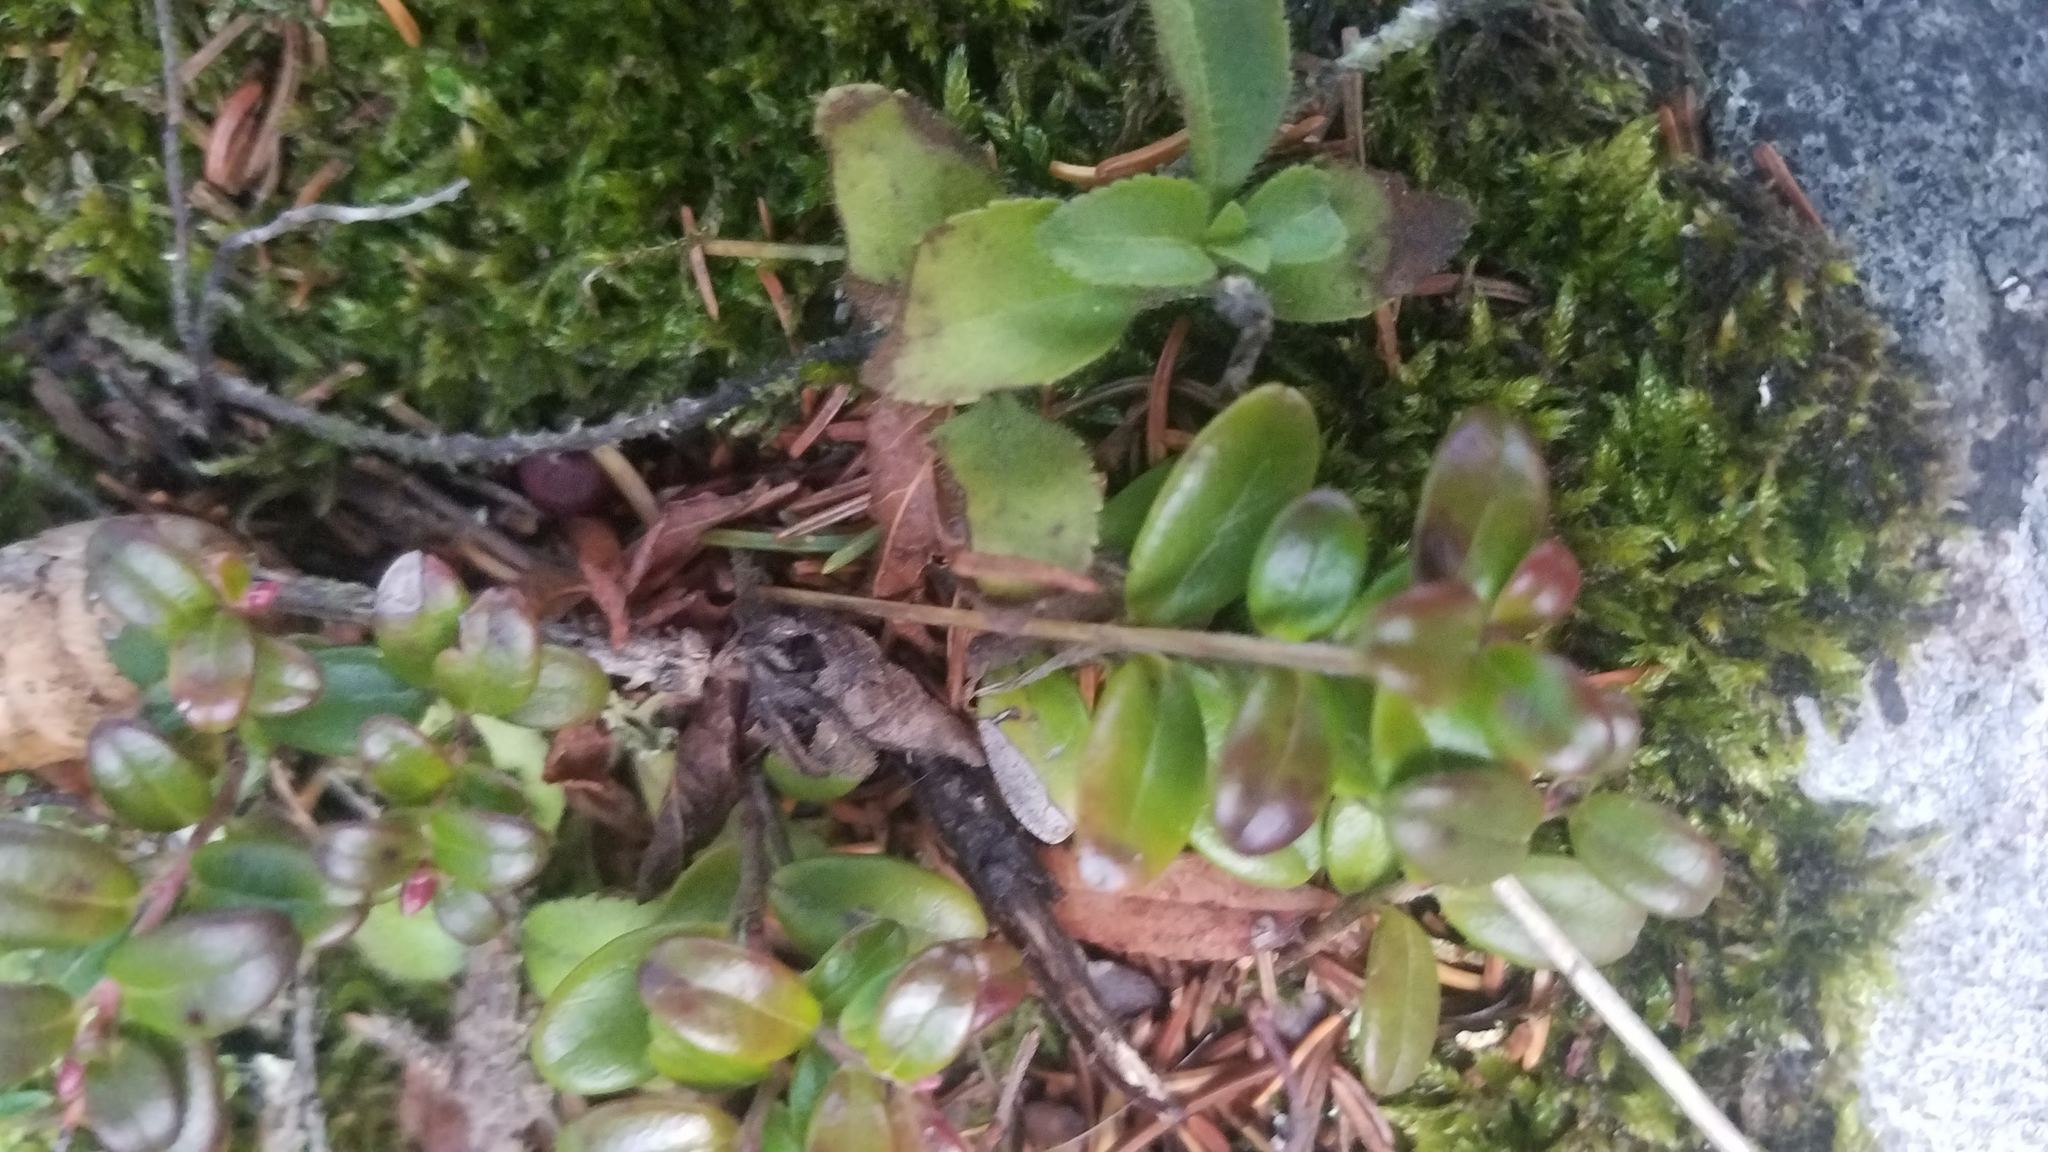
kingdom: Plantae
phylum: Tracheophyta
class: Magnoliopsida
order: Ericales
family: Ericaceae
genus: Vaccinium
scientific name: Vaccinium vitis-idaea
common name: Cowberry
